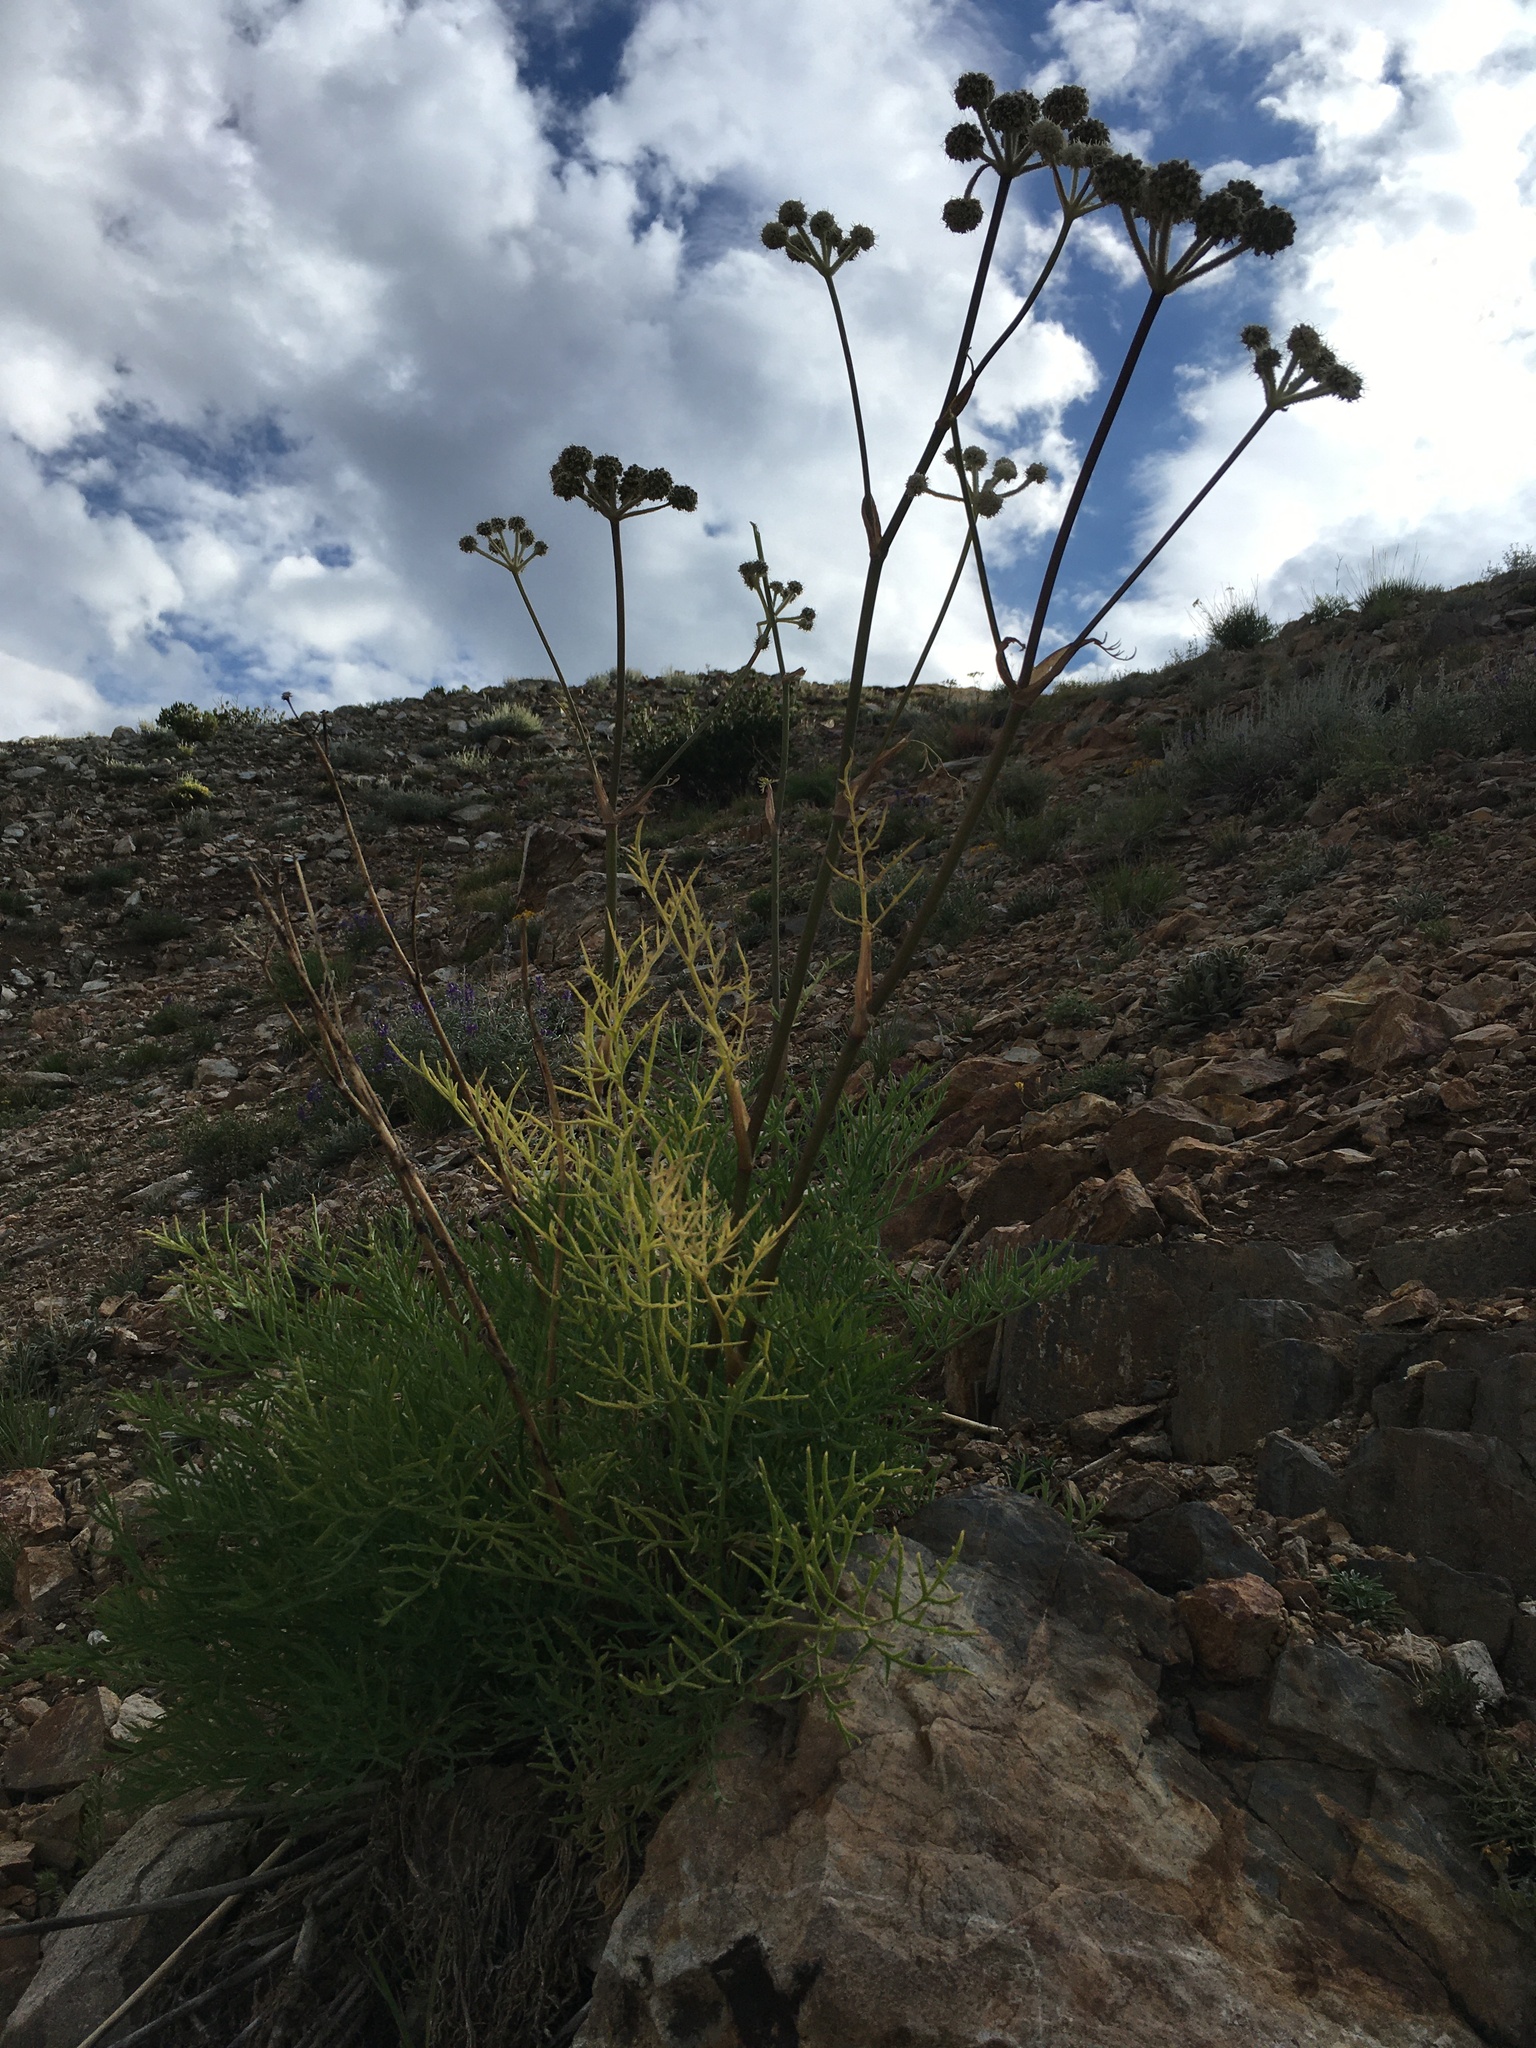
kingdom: Plantae
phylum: Tracheophyta
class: Magnoliopsida
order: Apiales
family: Apiaceae
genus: Angelica
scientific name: Angelica capitellata
